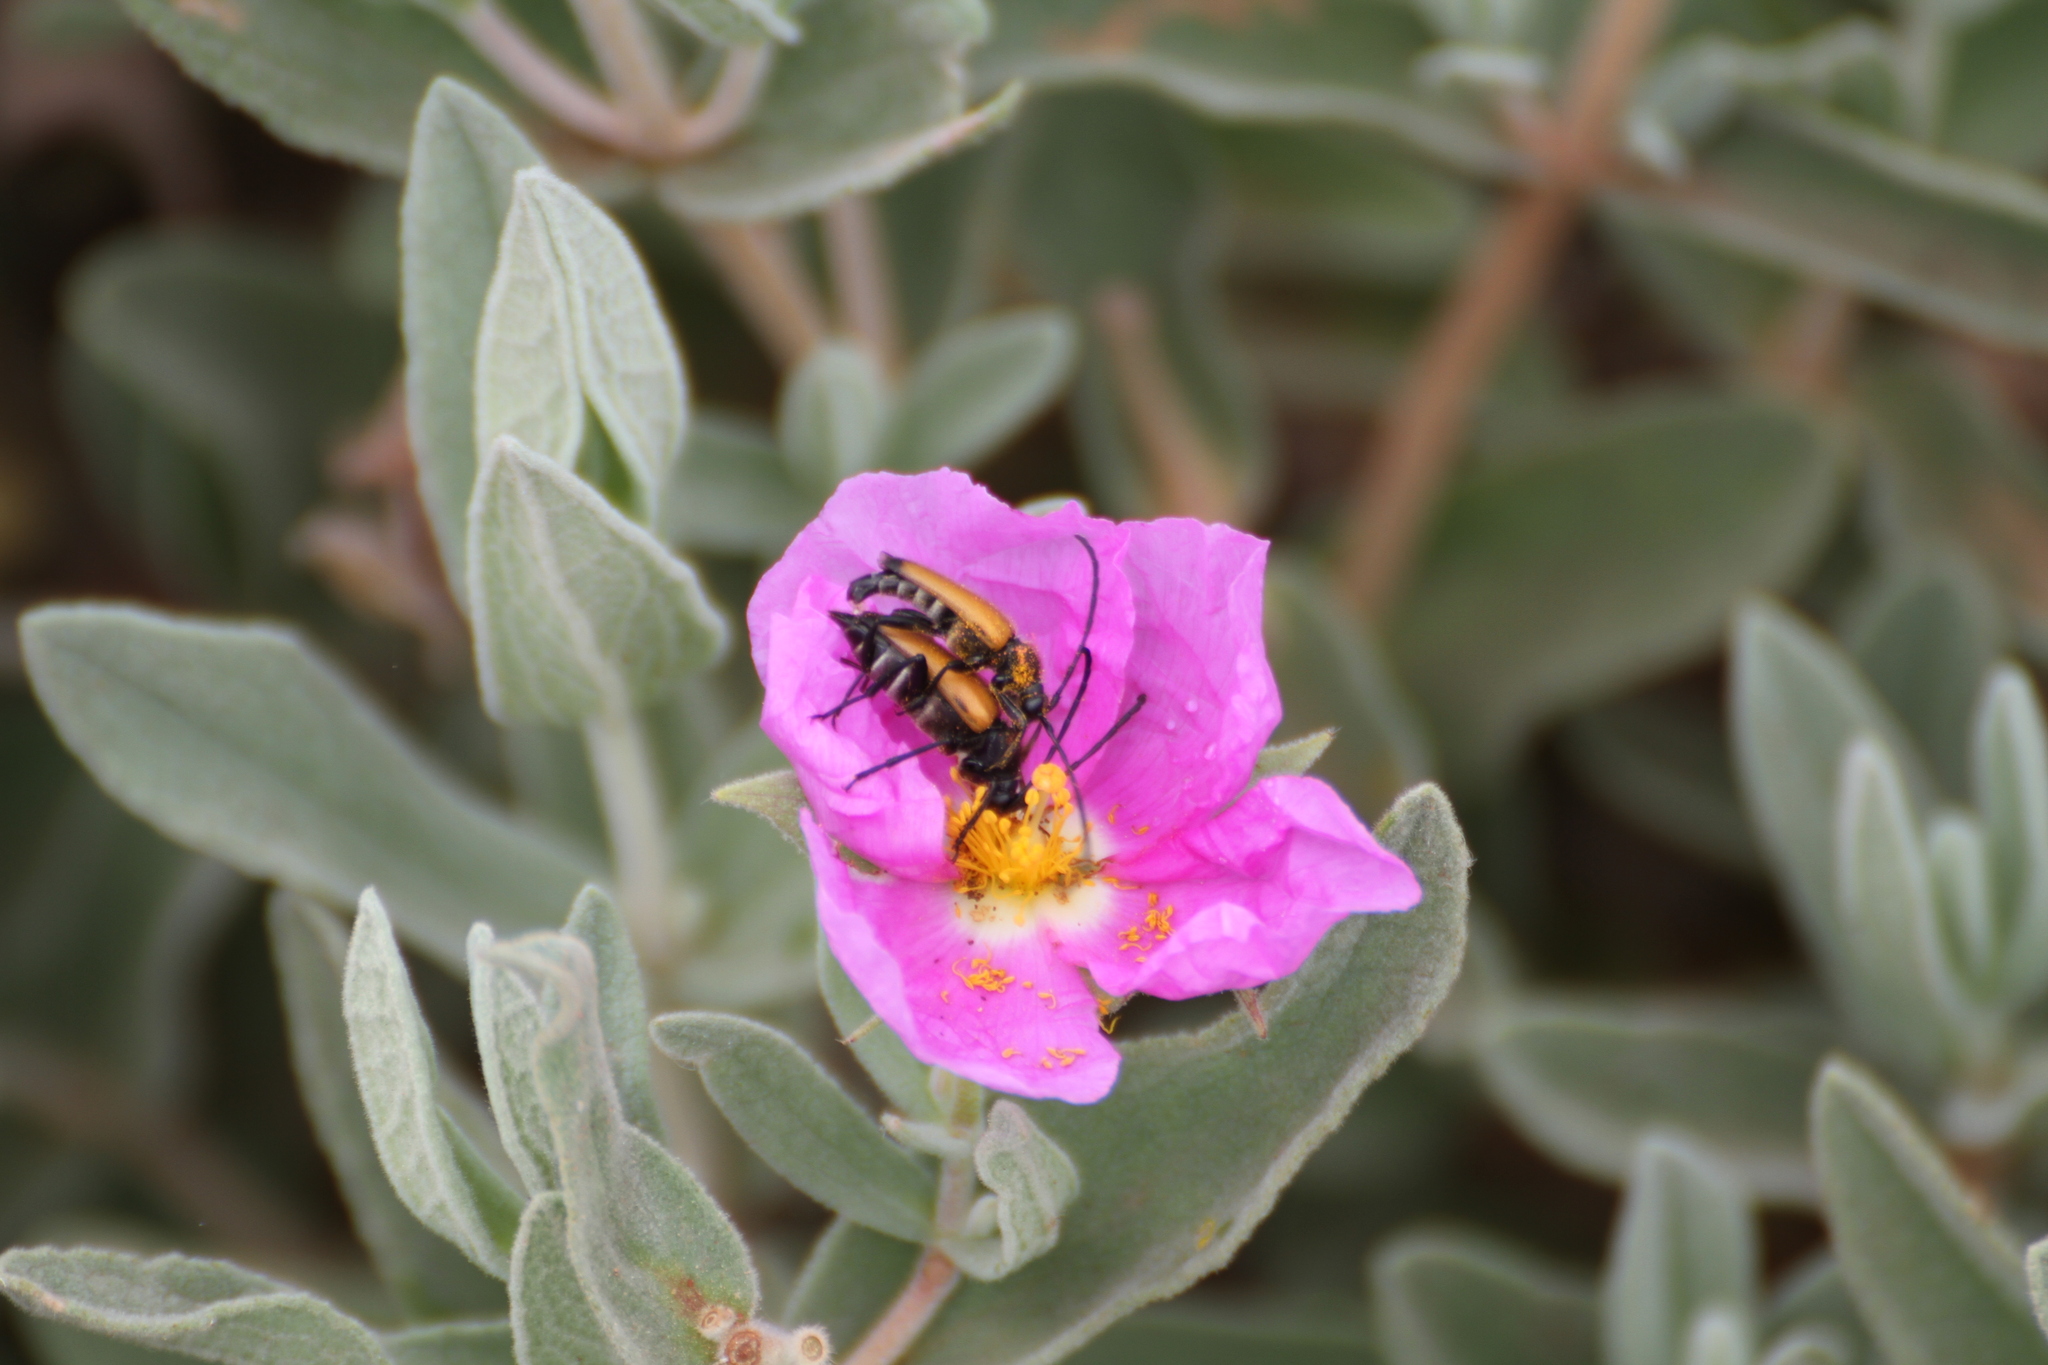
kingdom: Animalia
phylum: Arthropoda
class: Insecta
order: Coleoptera
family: Cerambycidae
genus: Paracorymbia
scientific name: Paracorymbia fulva
